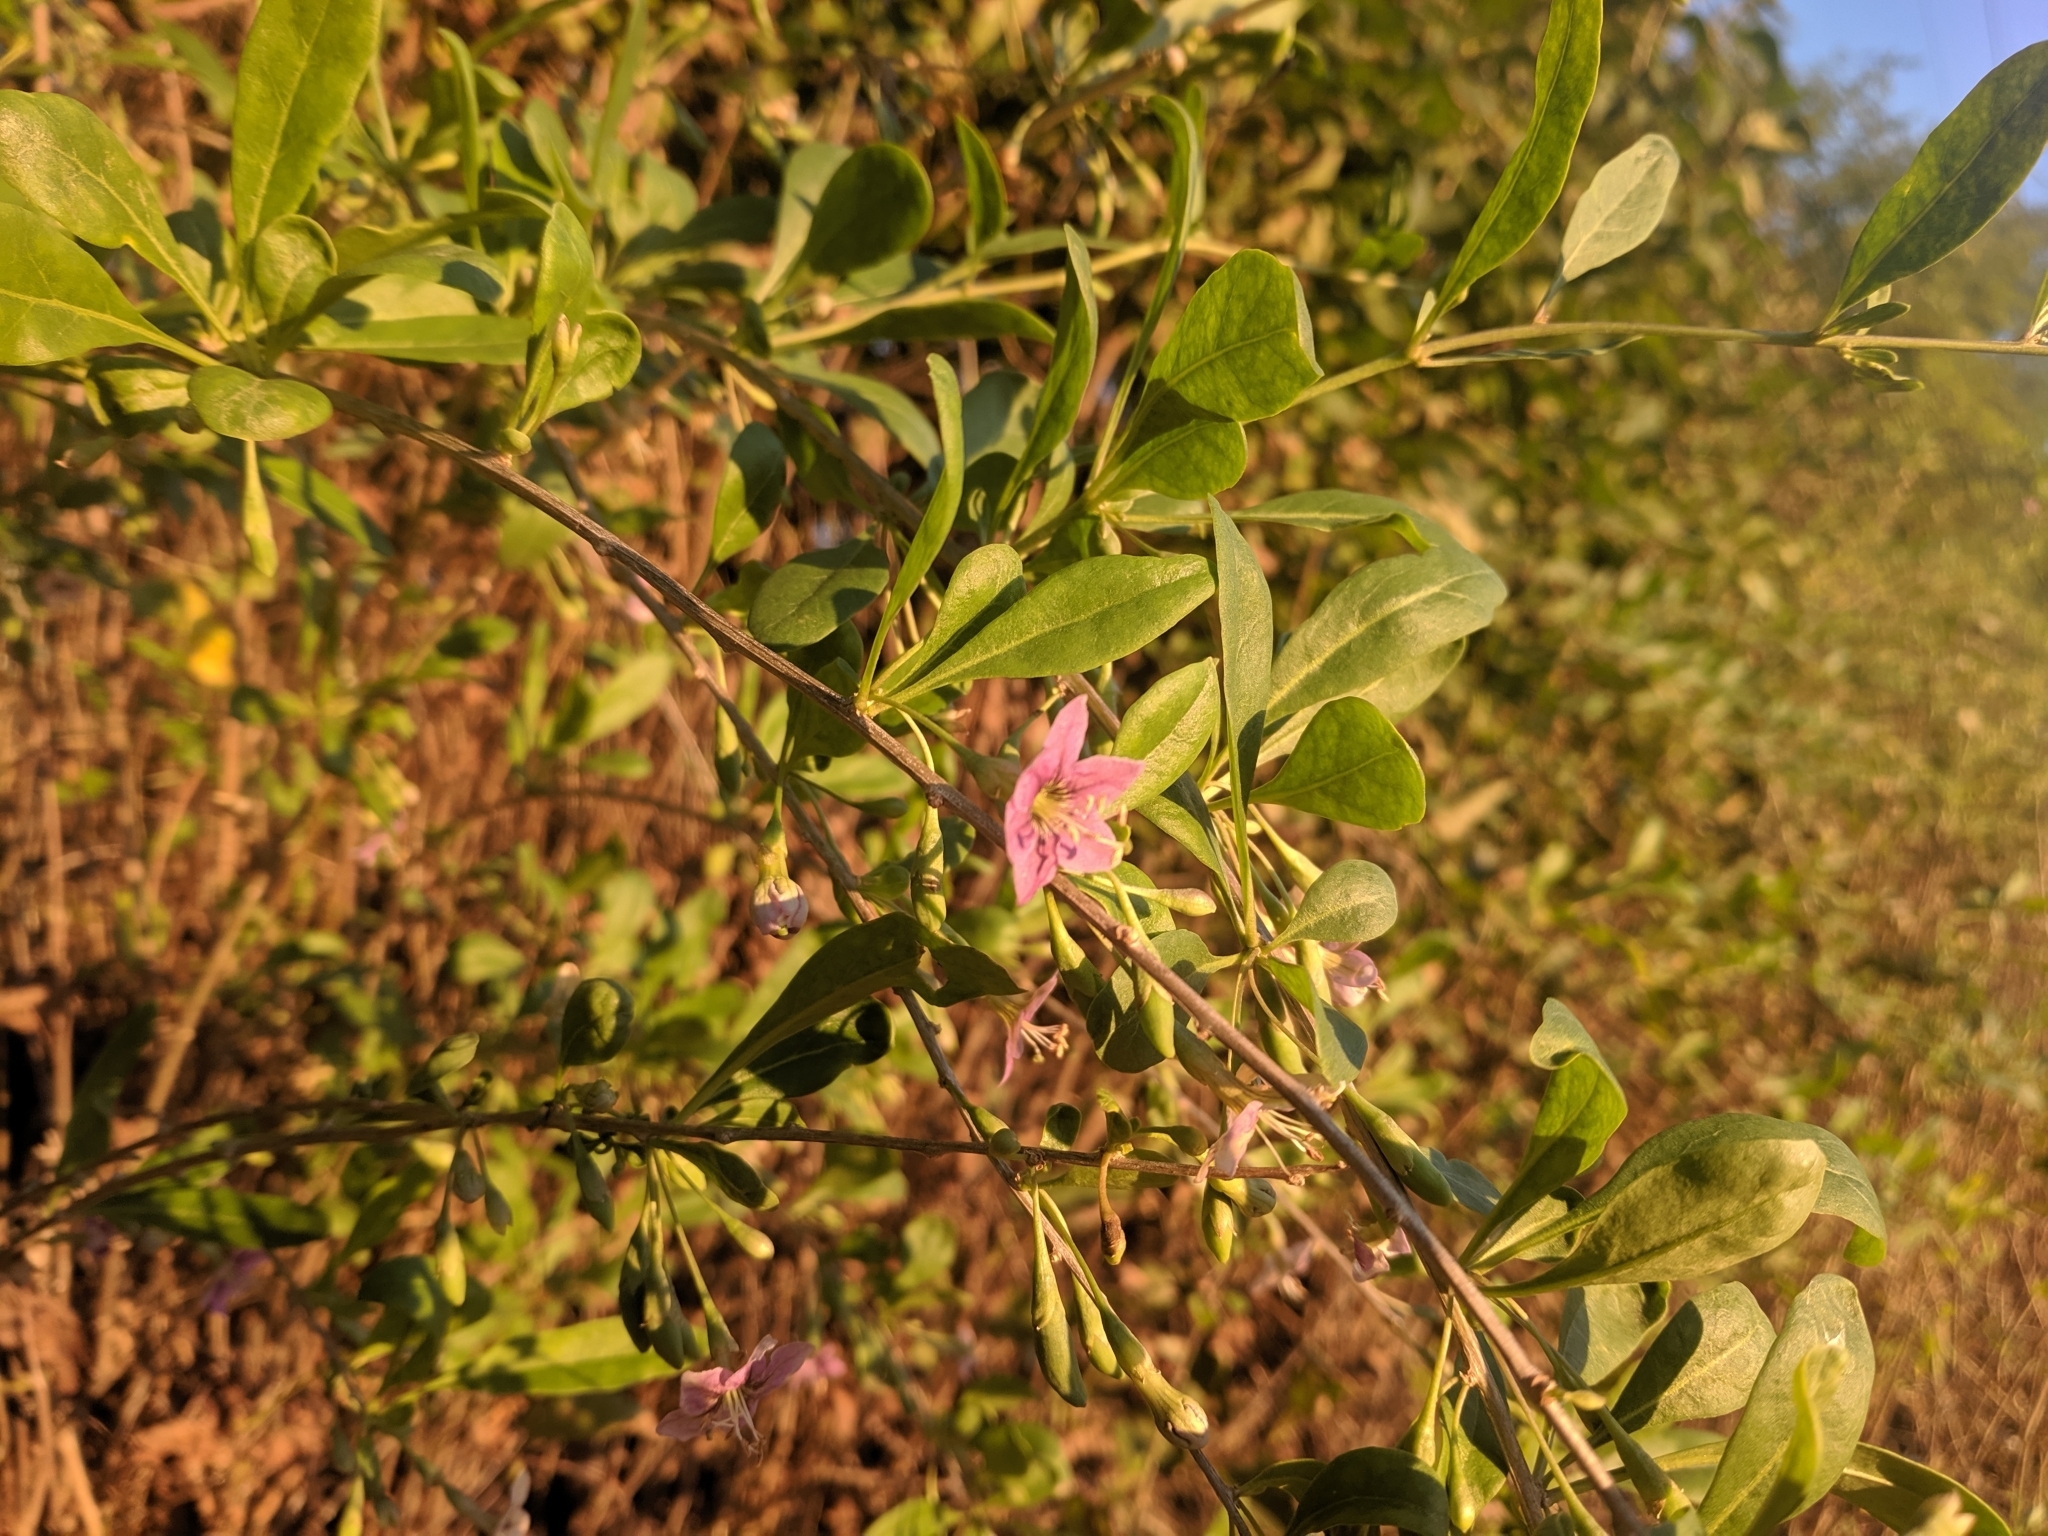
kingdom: Plantae
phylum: Tracheophyta
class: Magnoliopsida
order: Solanales
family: Solanaceae
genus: Lycium
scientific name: Lycium barbarum
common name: Duke of argyll's teaplant
